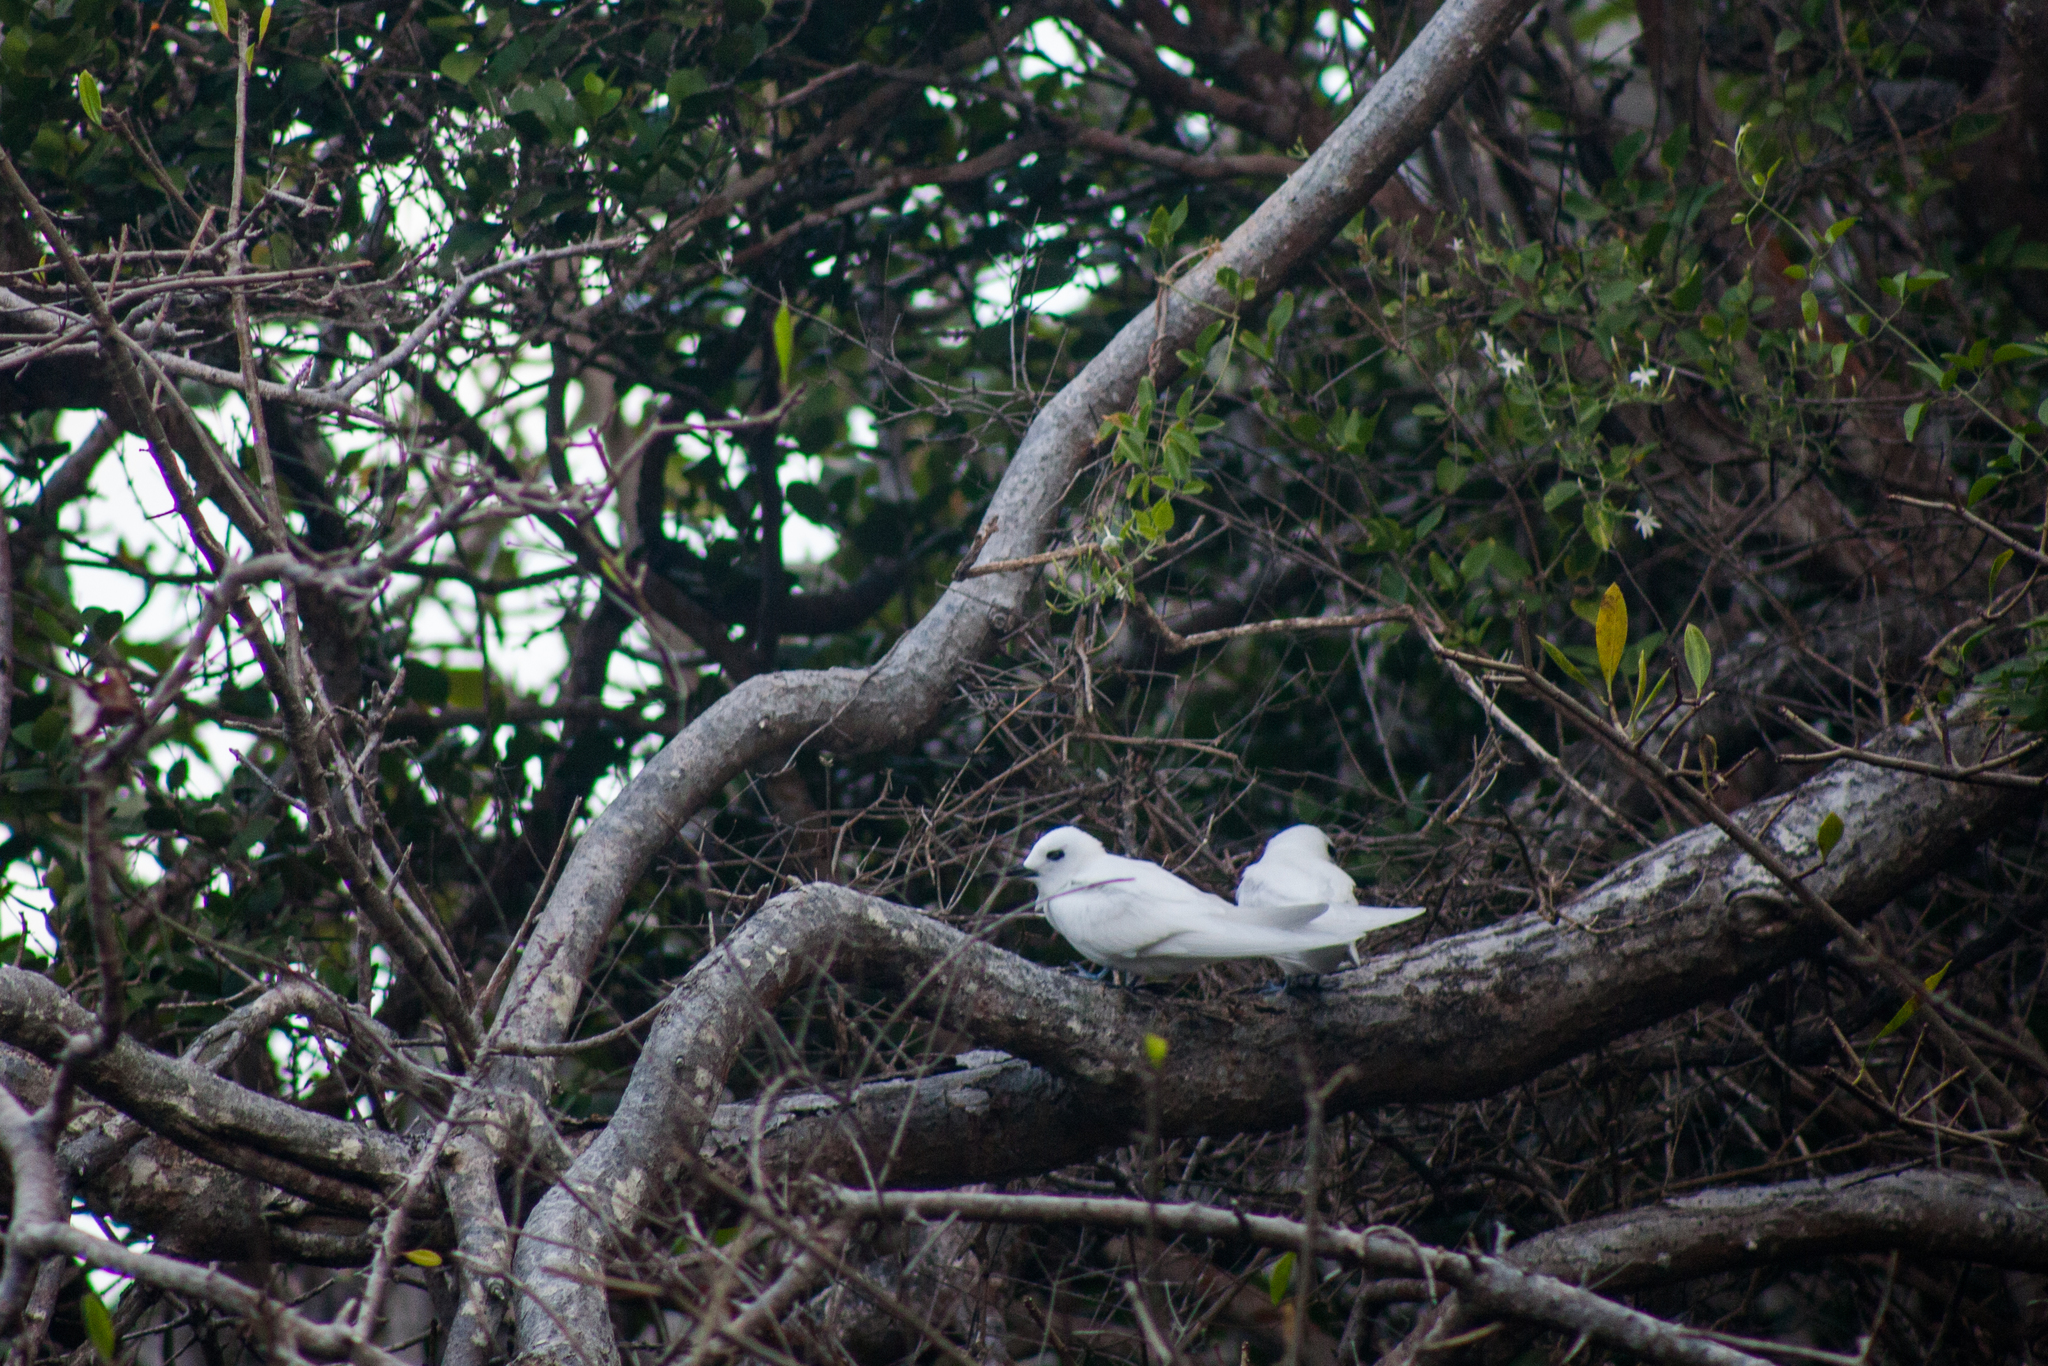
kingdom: Animalia
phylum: Chordata
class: Aves
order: Charadriiformes
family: Laridae
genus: Gygis
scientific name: Gygis alba
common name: White tern
